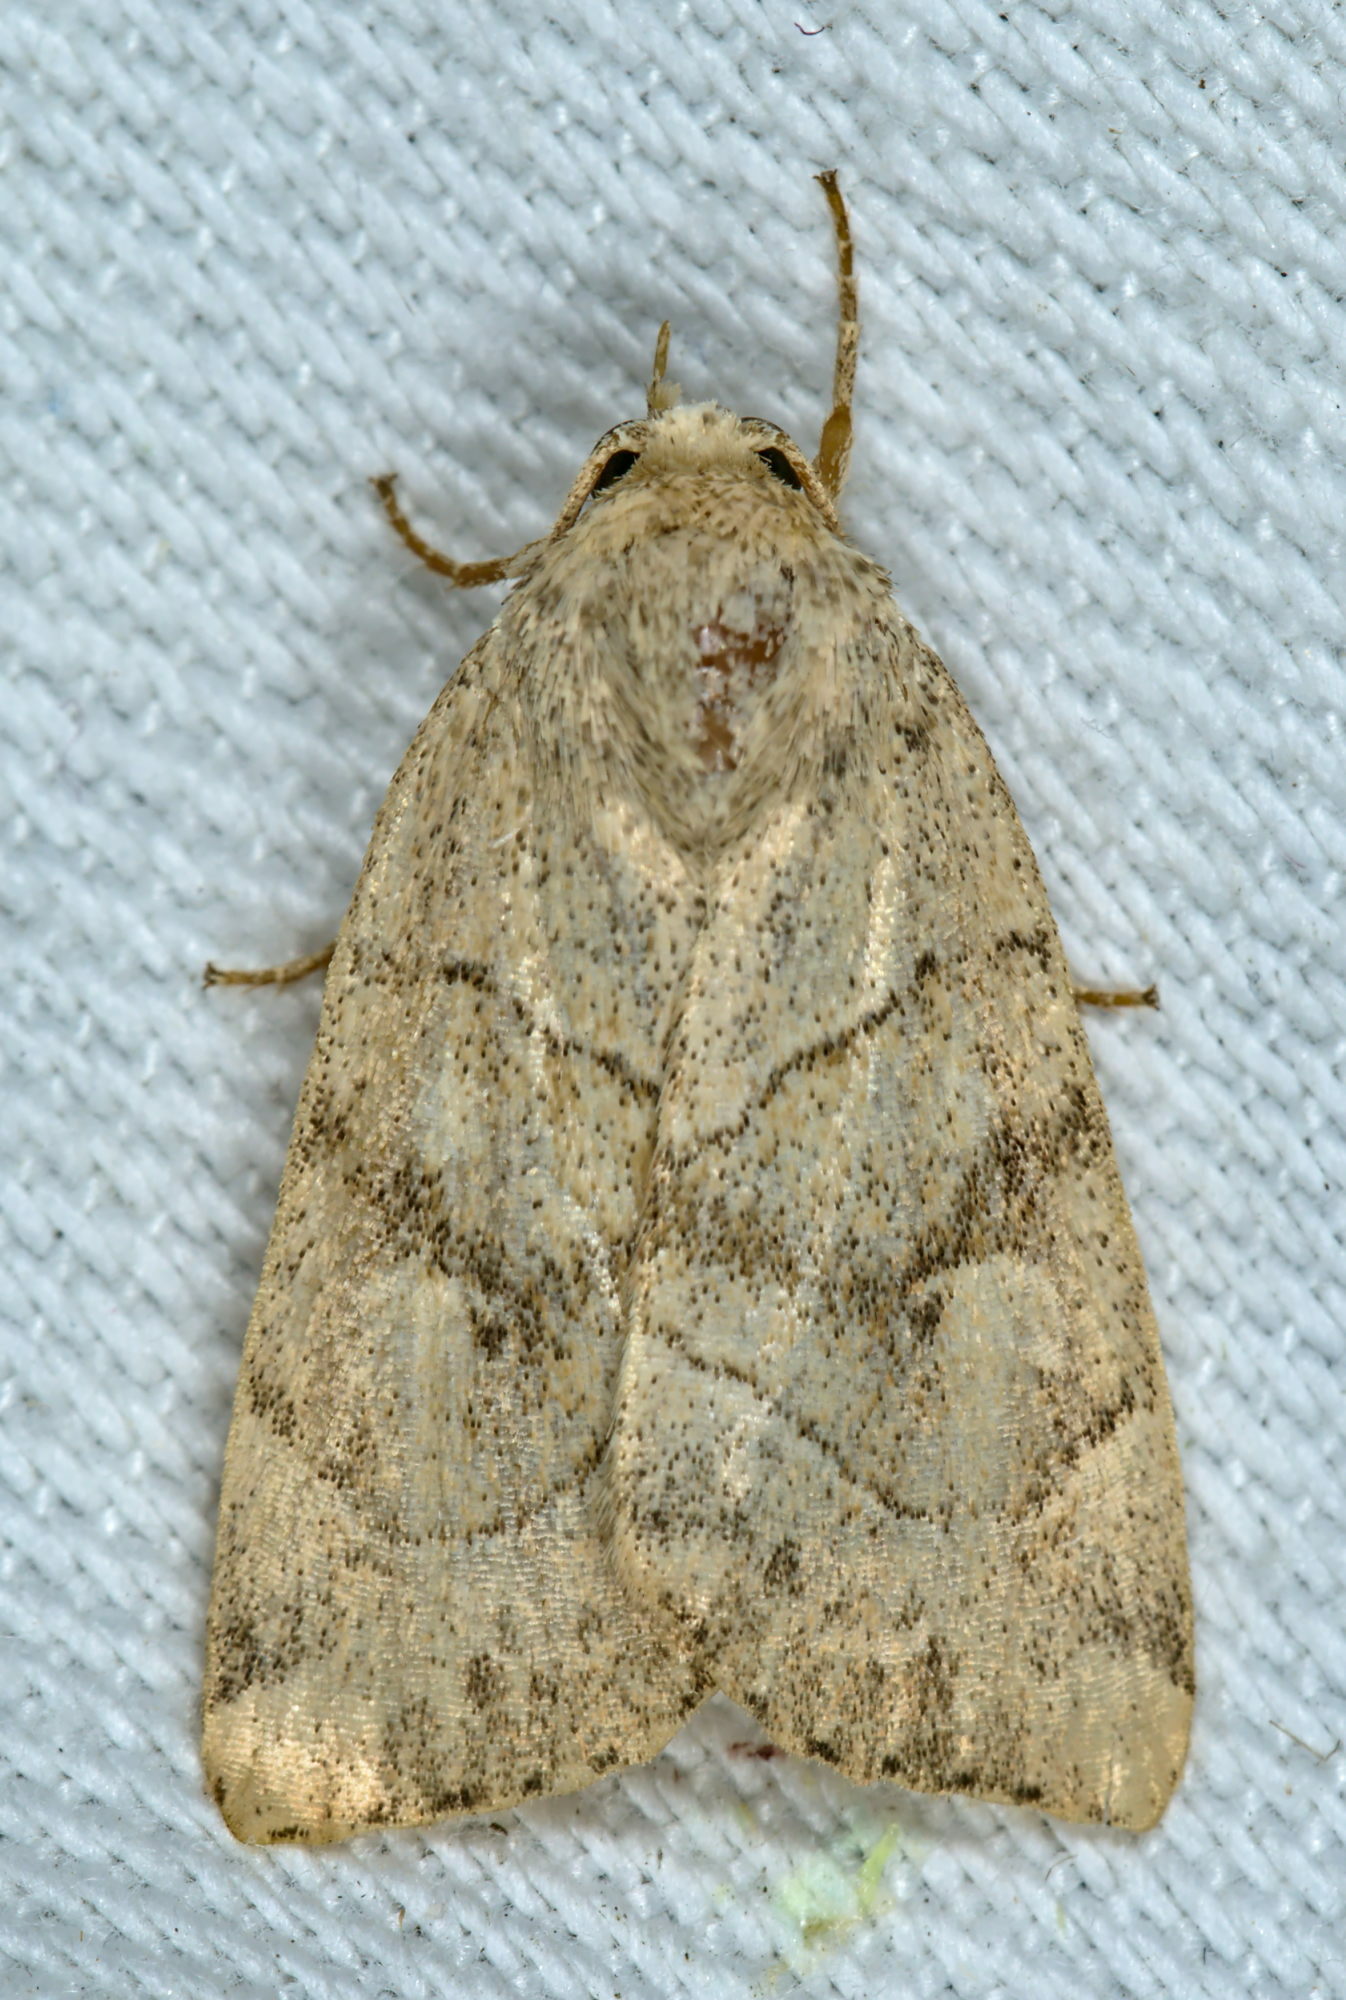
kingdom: Animalia
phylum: Arthropoda
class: Insecta
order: Lepidoptera
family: Noctuidae
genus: Cosmia
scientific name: Cosmia trapezina
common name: Dun-bar
